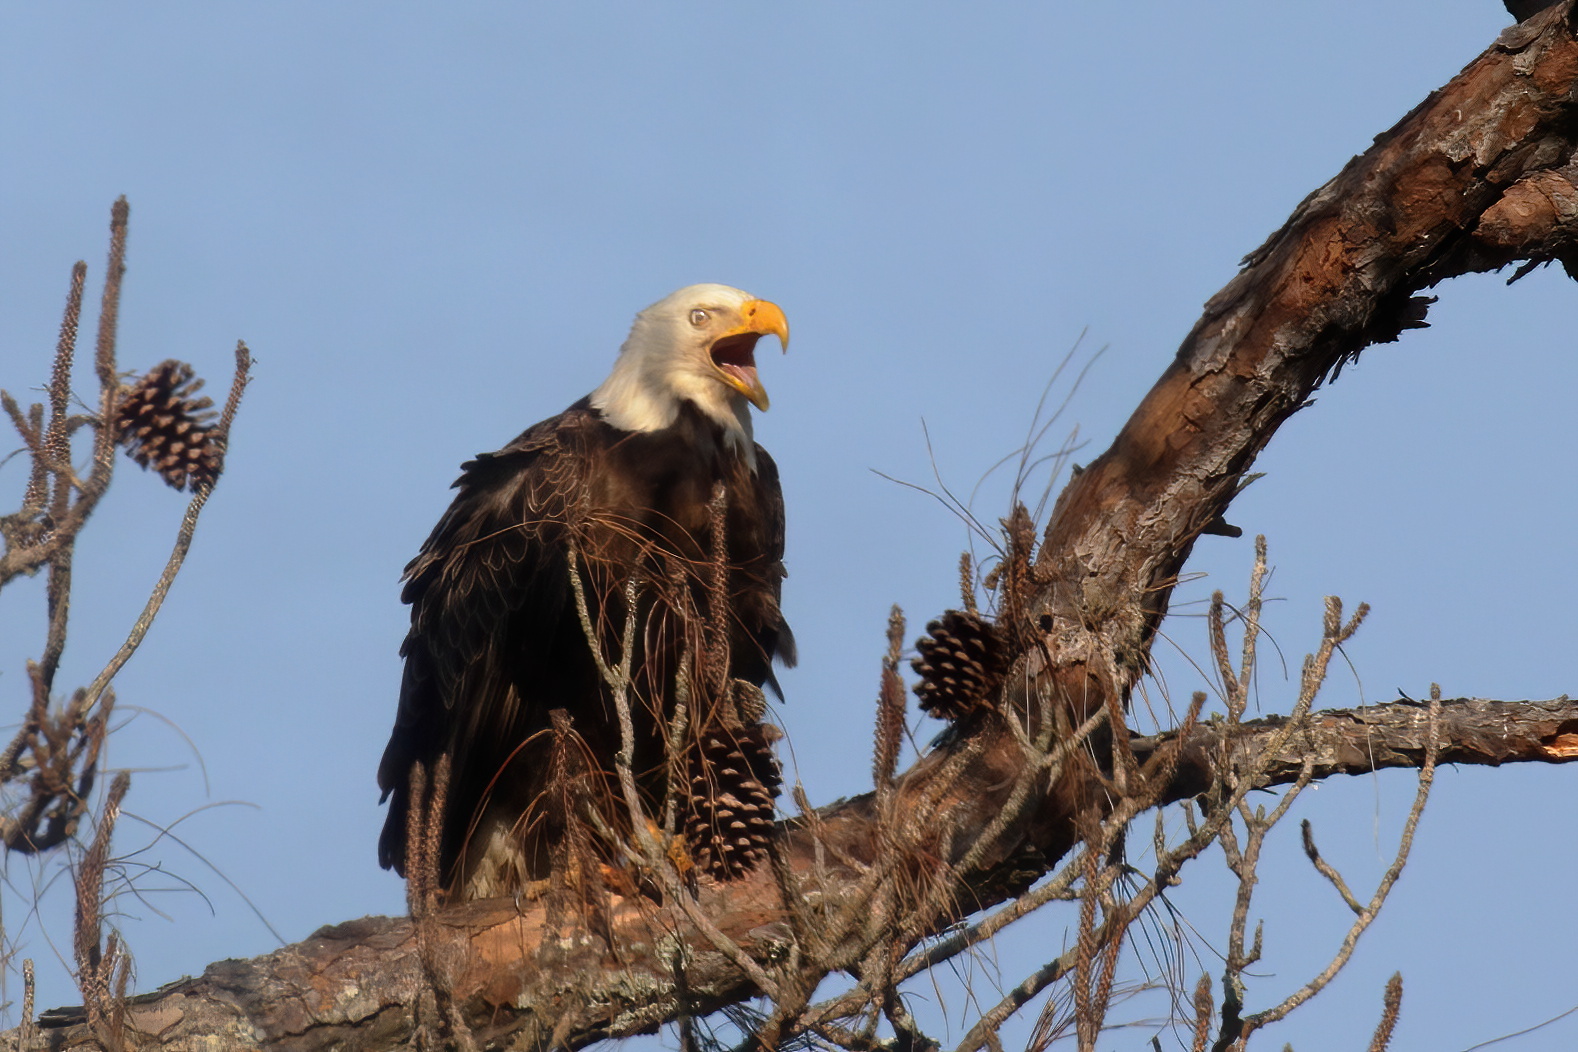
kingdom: Animalia
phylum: Chordata
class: Aves
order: Accipitriformes
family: Accipitridae
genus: Haliaeetus
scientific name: Haliaeetus leucocephalus
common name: Bald eagle
